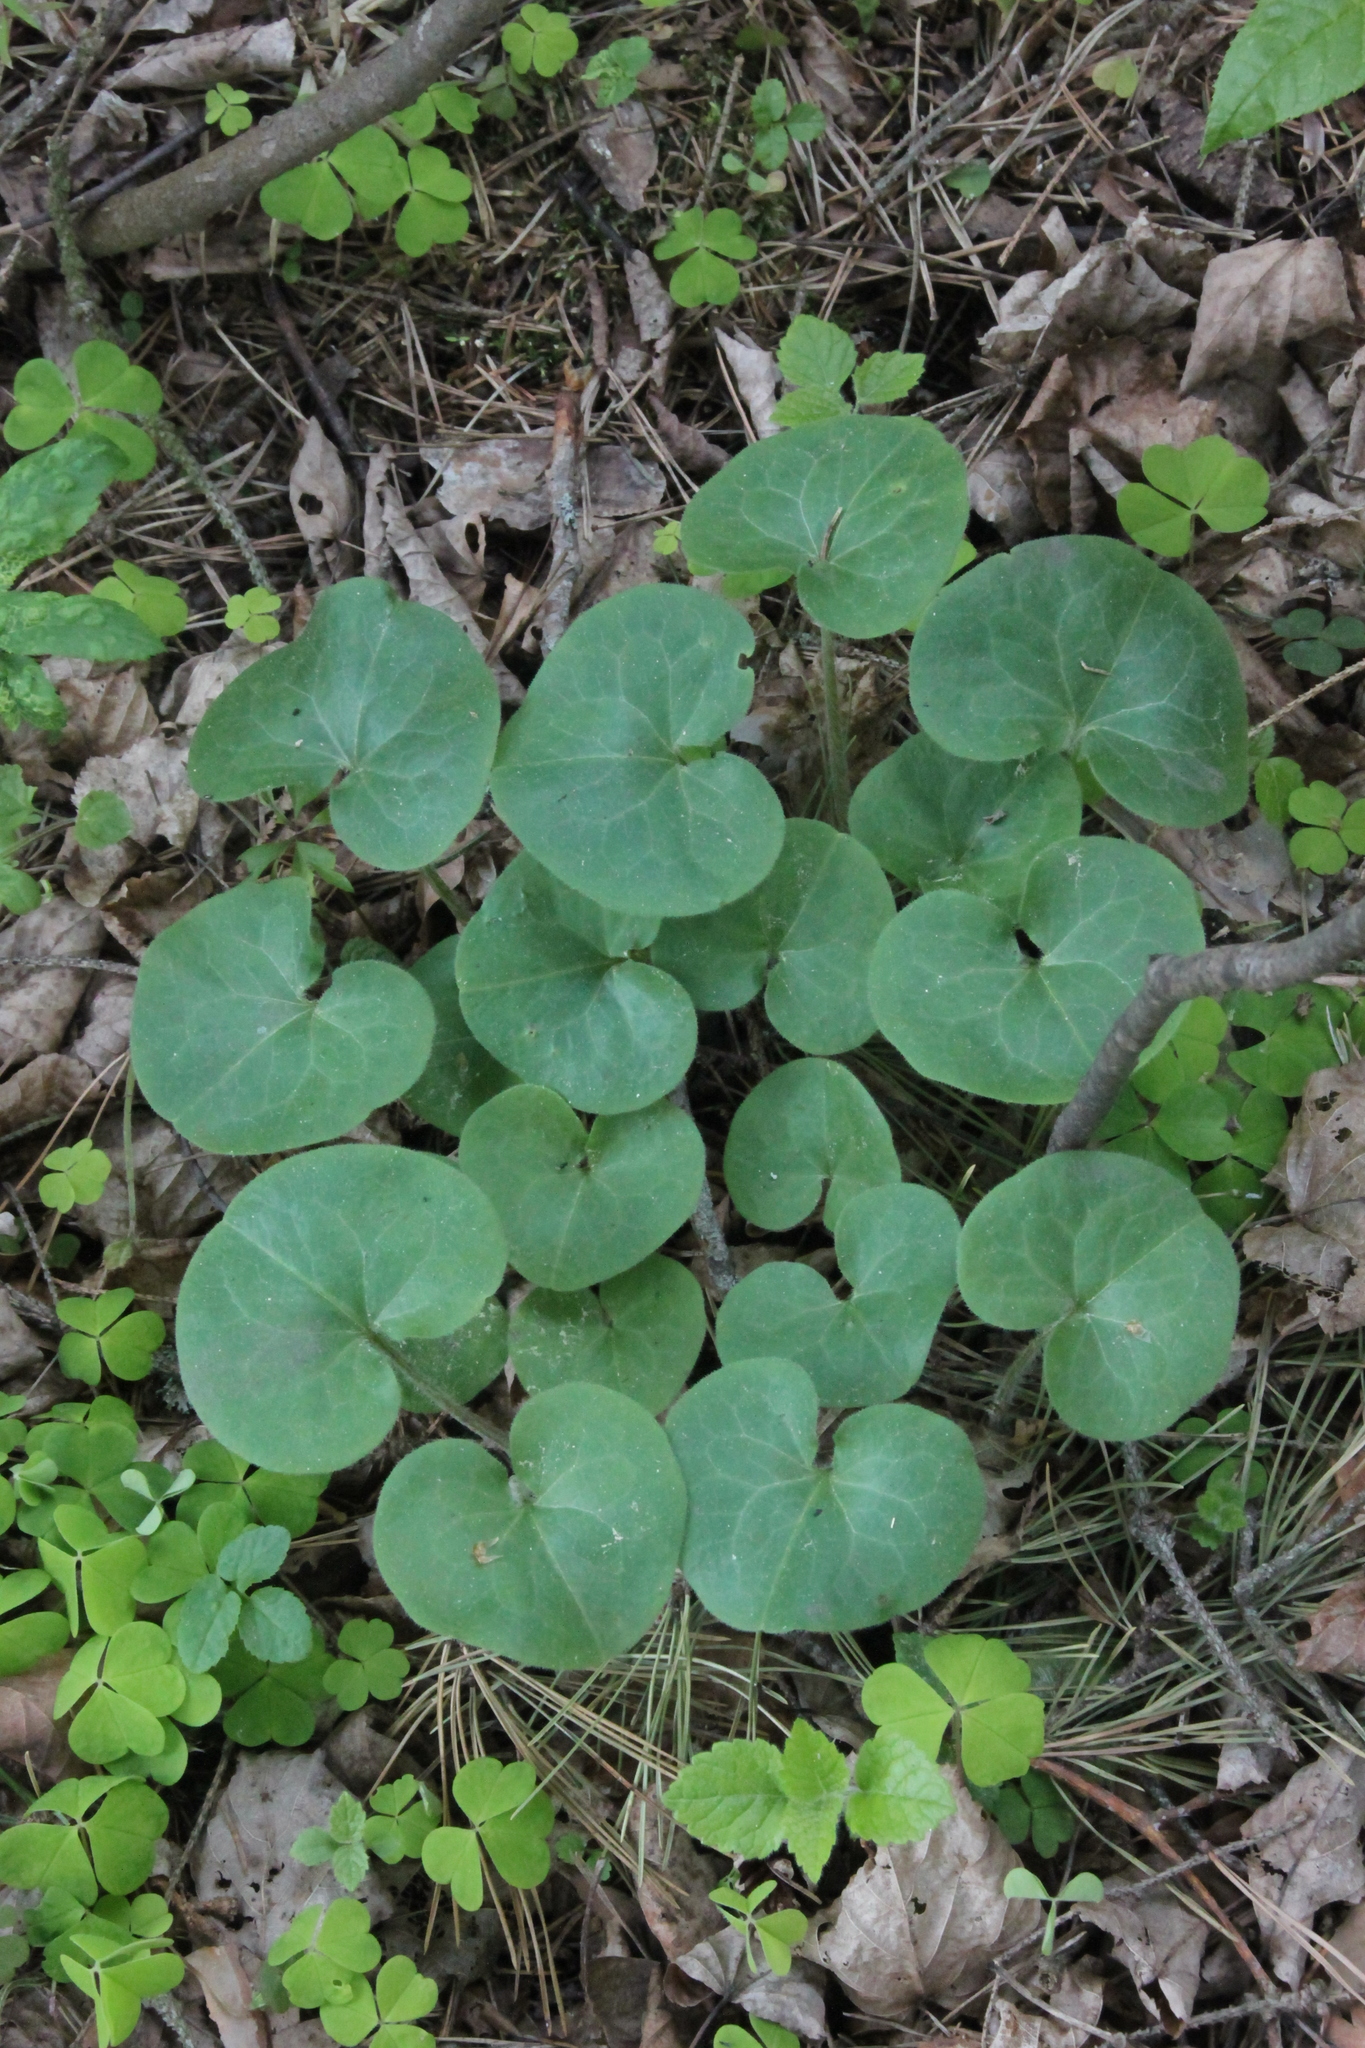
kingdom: Plantae
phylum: Tracheophyta
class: Magnoliopsida
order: Piperales
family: Aristolochiaceae
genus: Asarum
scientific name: Asarum europaeum
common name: Asarabacca
